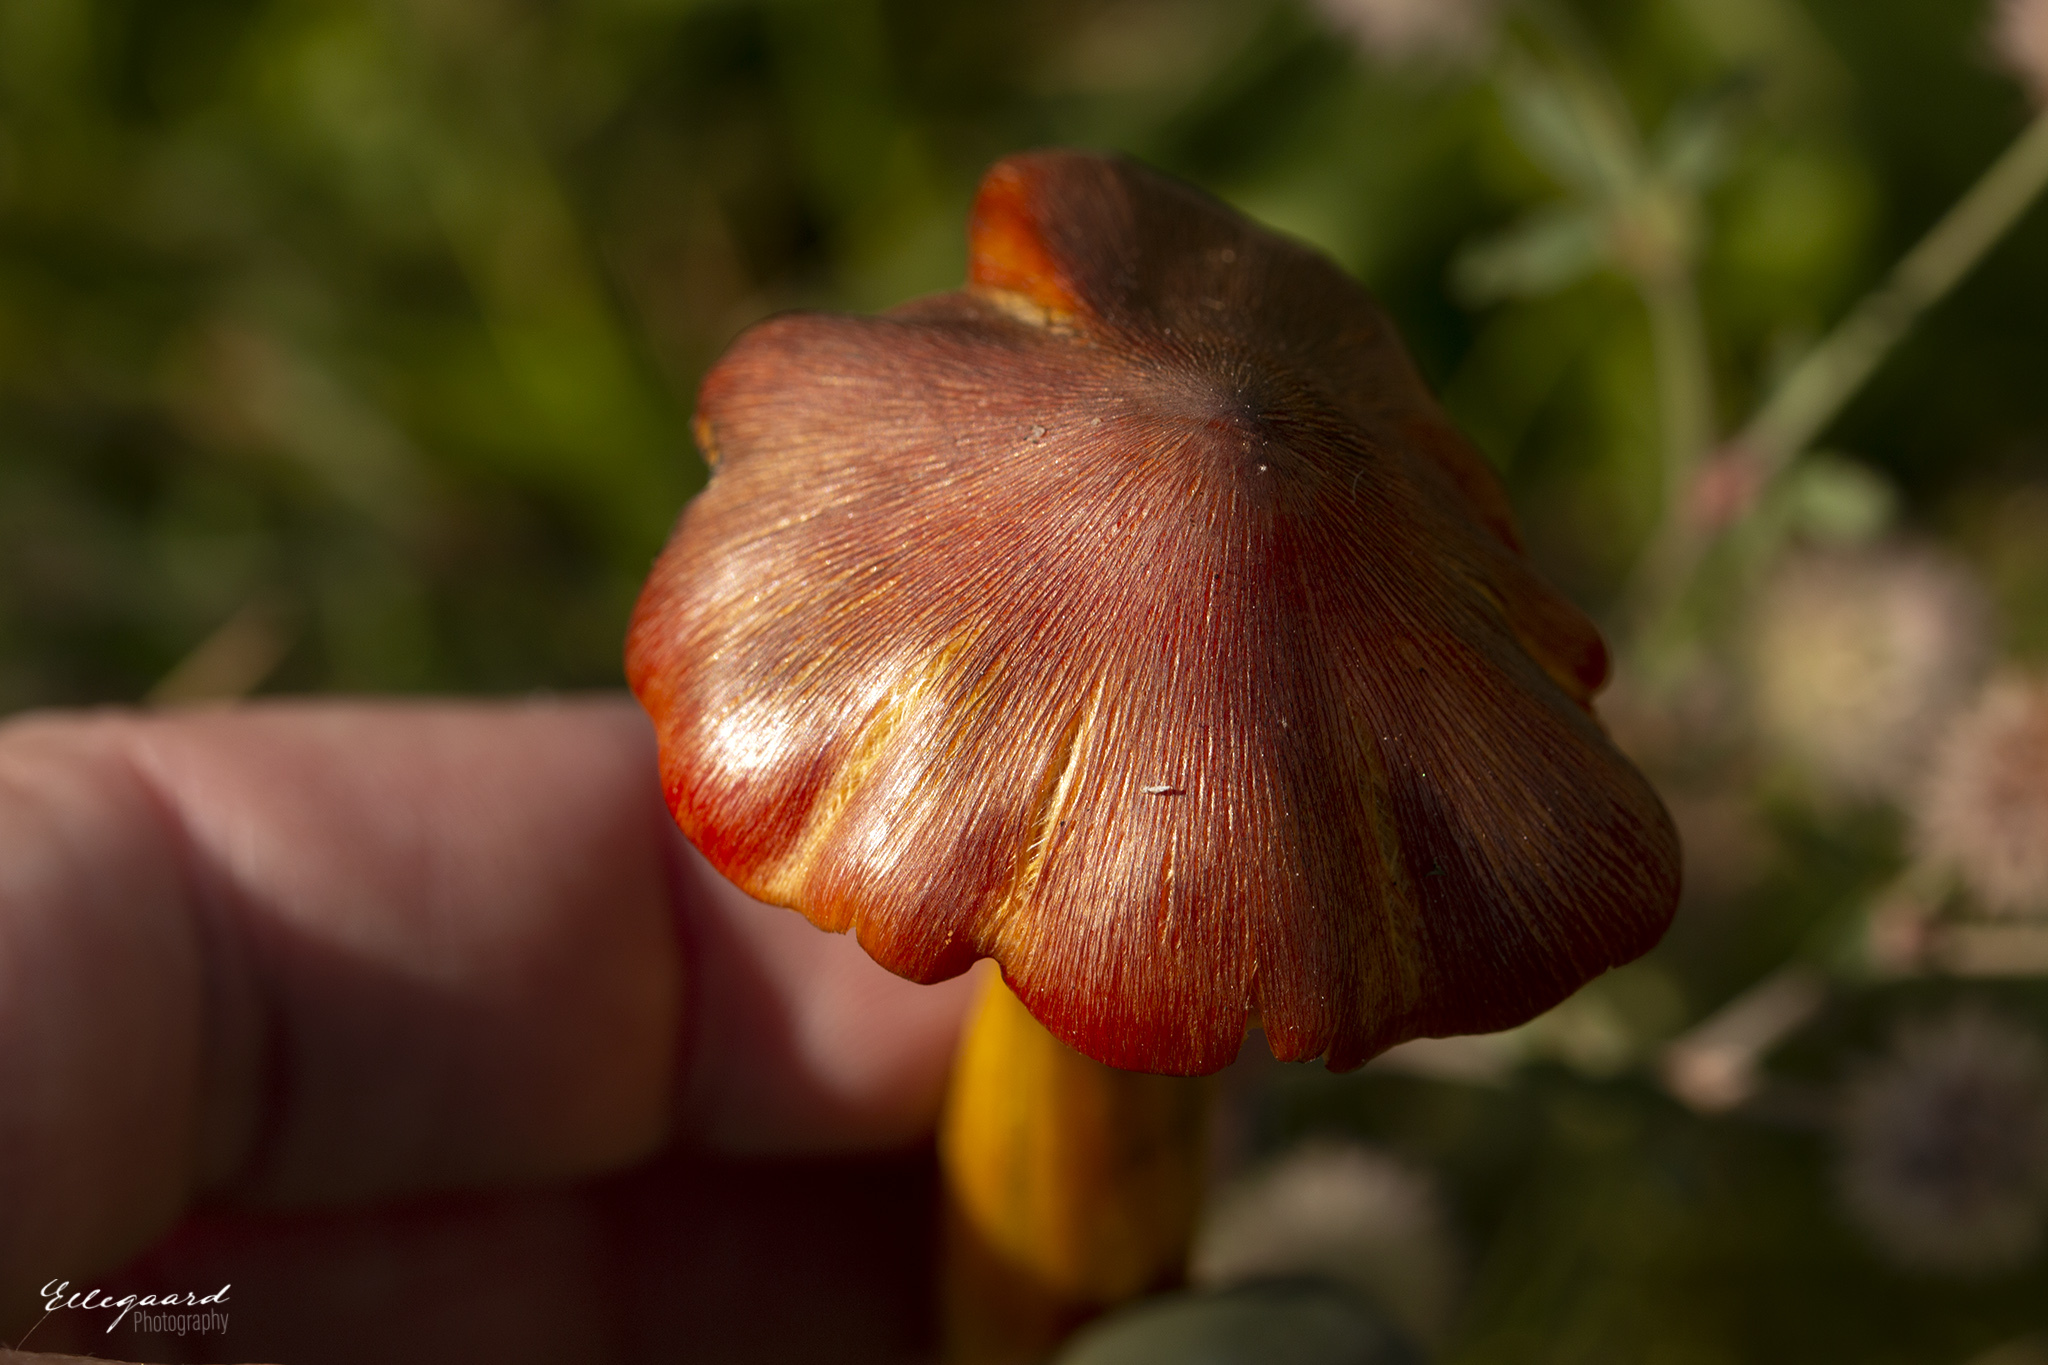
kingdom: Fungi
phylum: Basidiomycota
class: Agaricomycetes
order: Agaricales
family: Hygrophoraceae
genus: Hygrocybe
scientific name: Hygrocybe conica
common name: Blackening wax-cap
